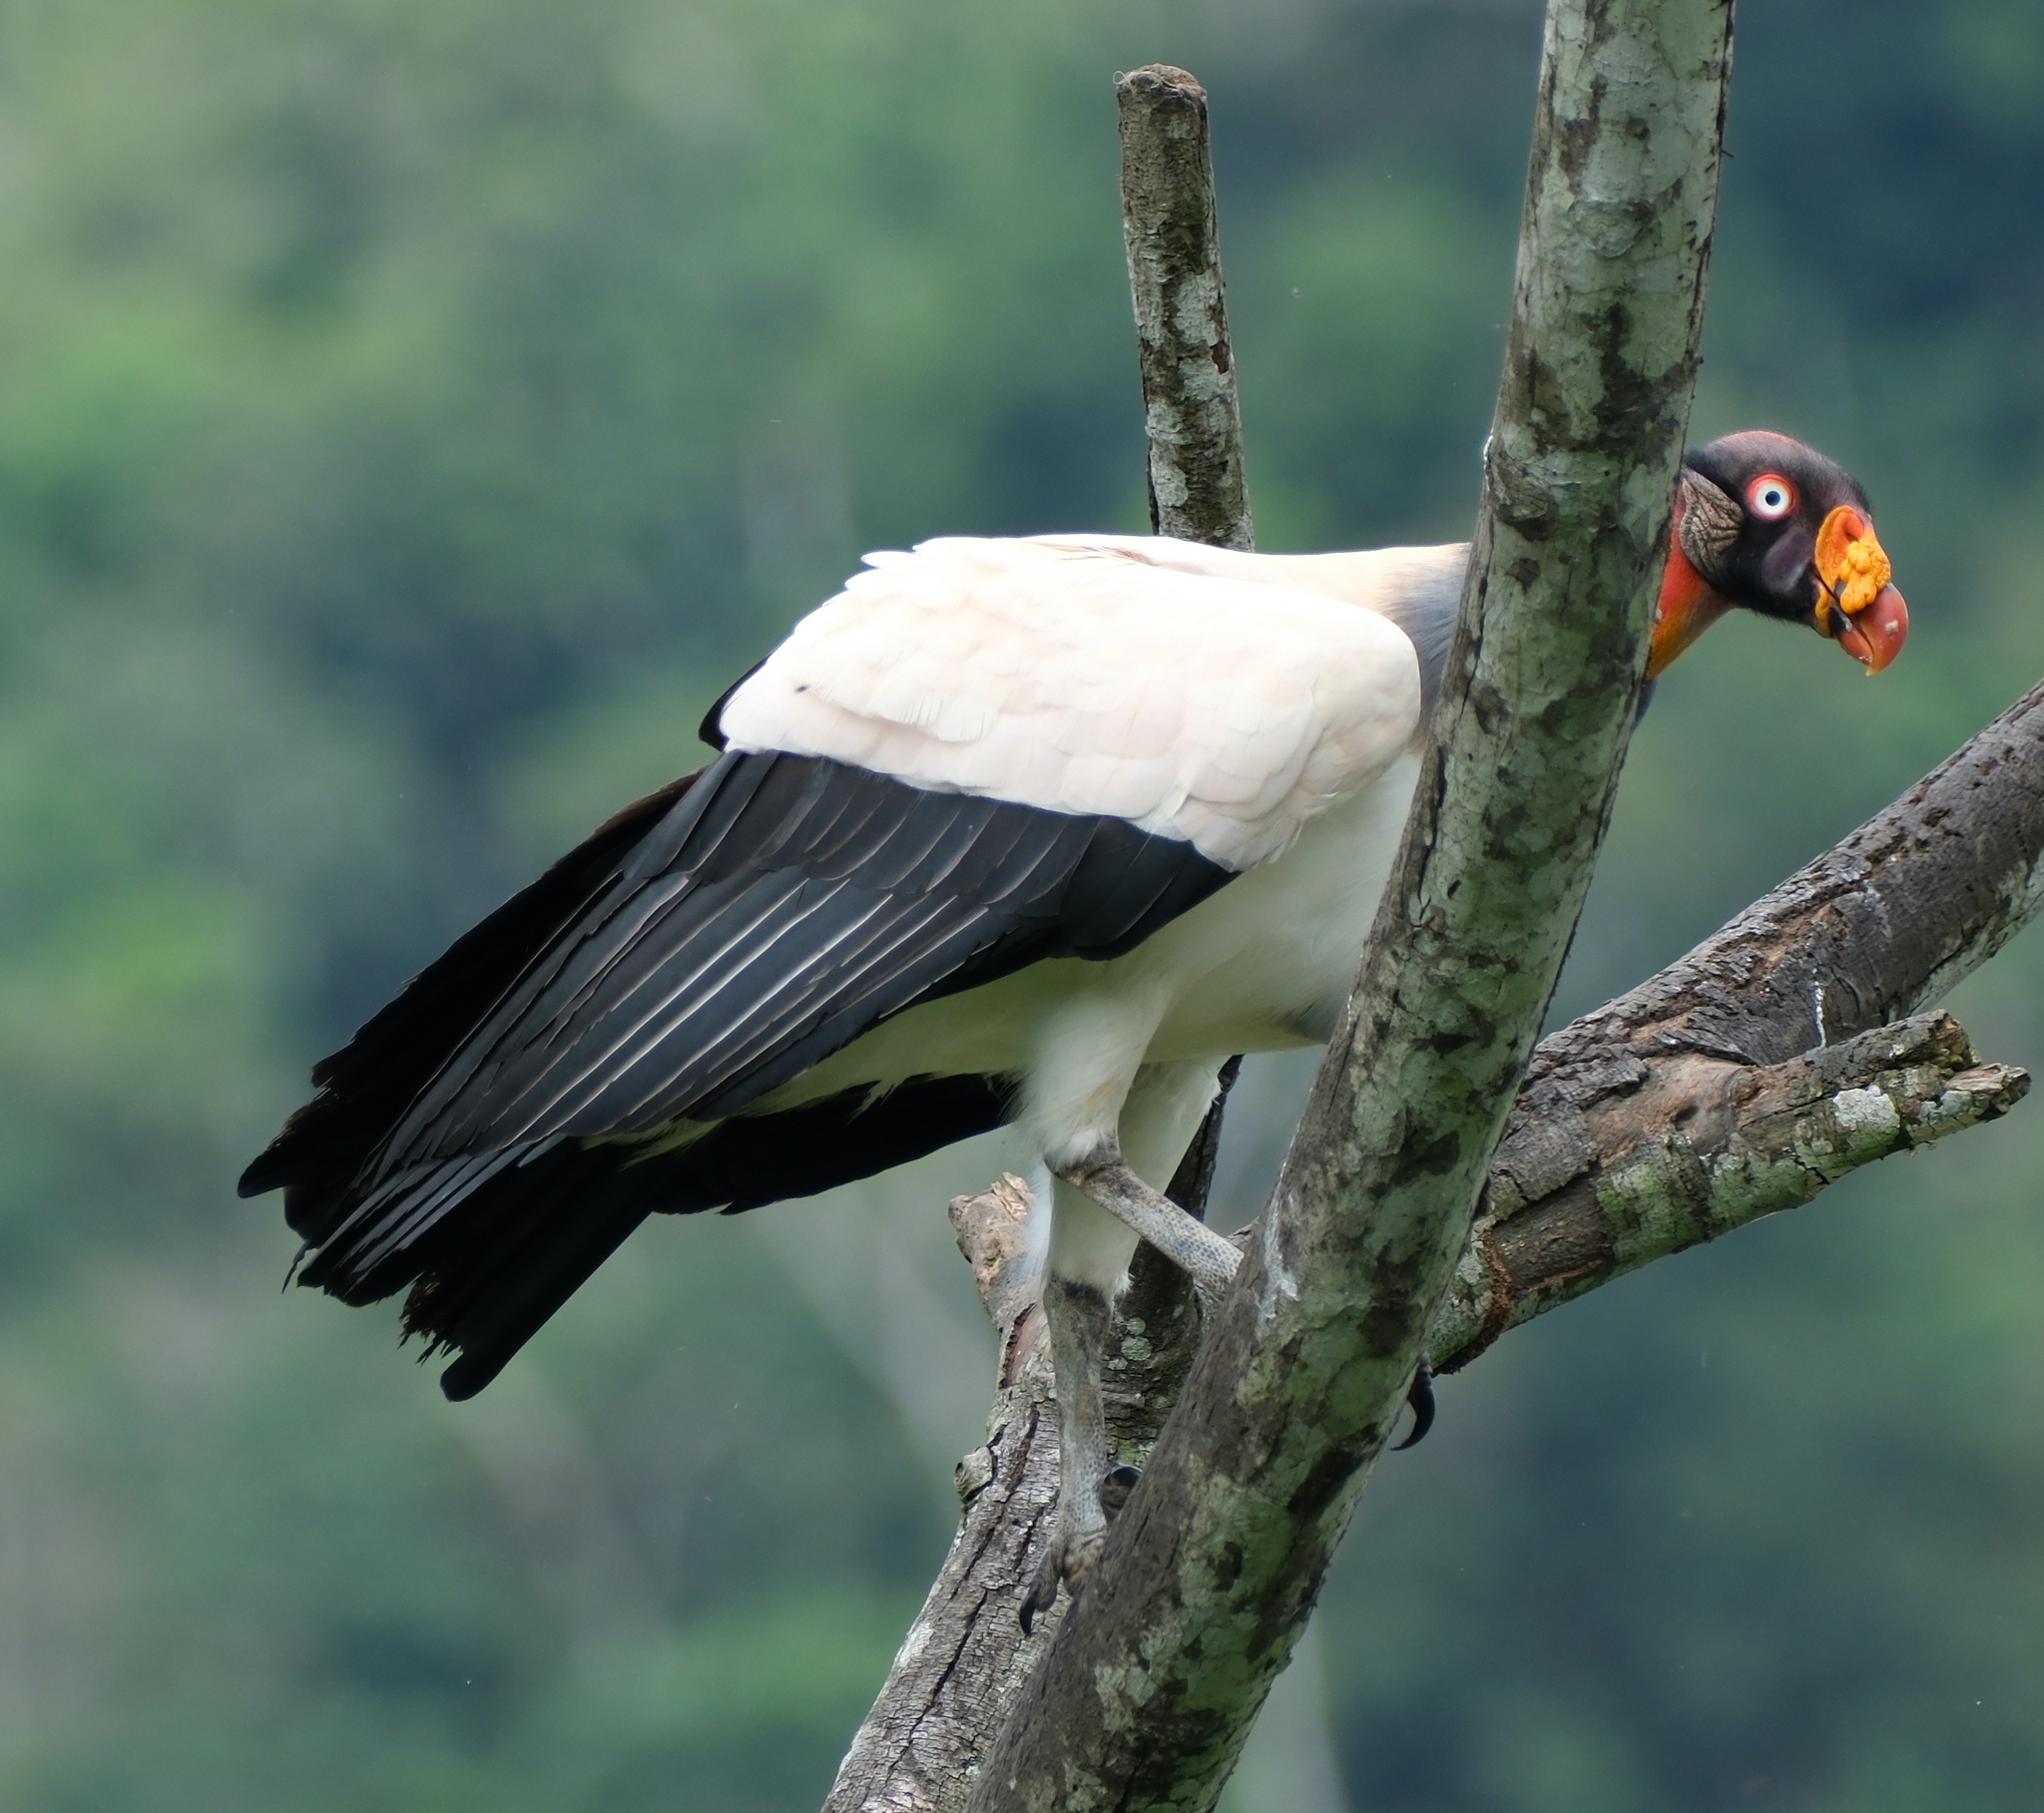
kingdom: Animalia
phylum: Chordata
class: Aves
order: Accipitriformes
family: Cathartidae
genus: Sarcoramphus
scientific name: Sarcoramphus papa
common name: King vulture
